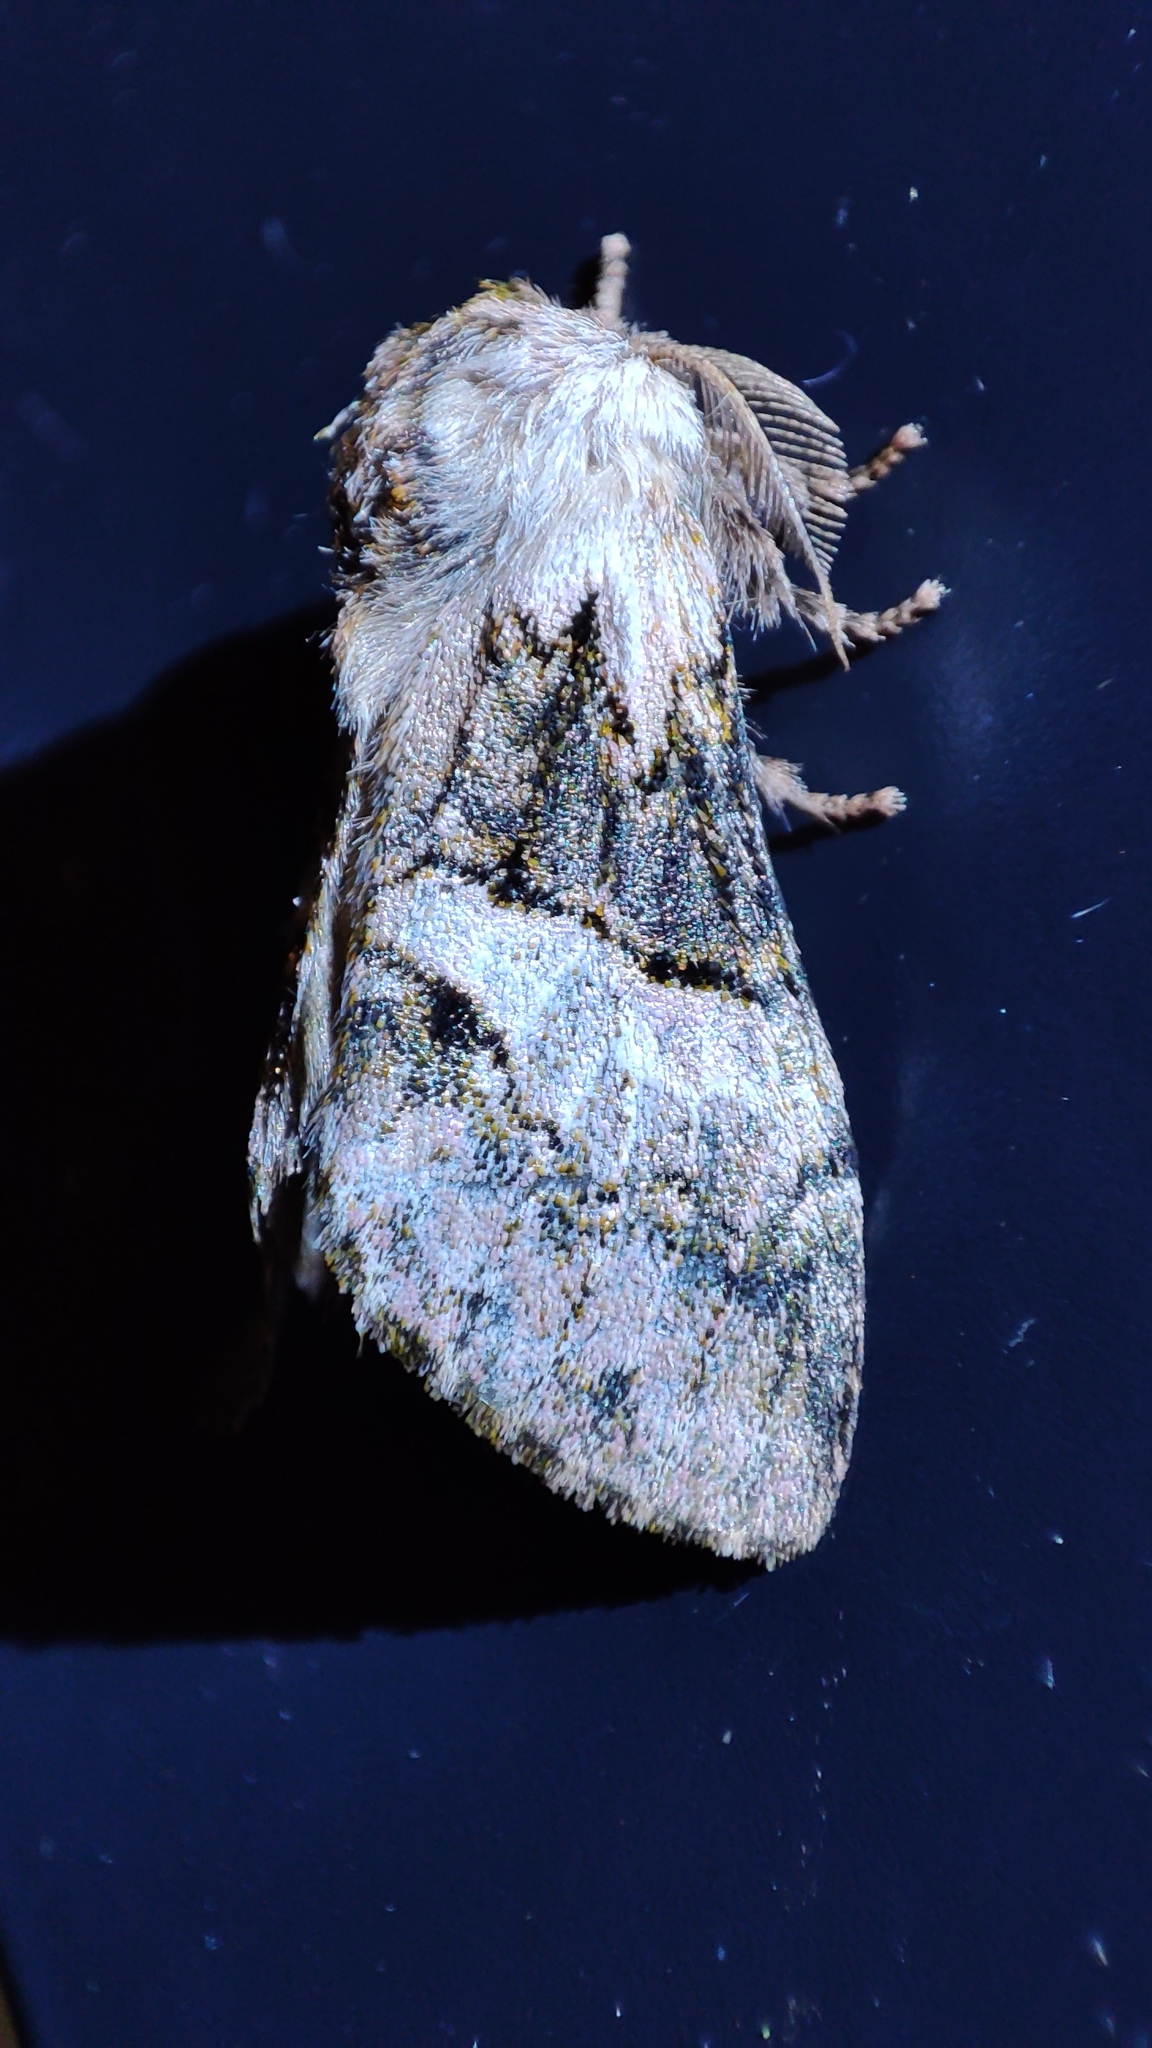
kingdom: Animalia
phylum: Arthropoda
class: Insecta
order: Lepidoptera
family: Notodontidae
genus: Rhenea
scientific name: Rhenea michii
